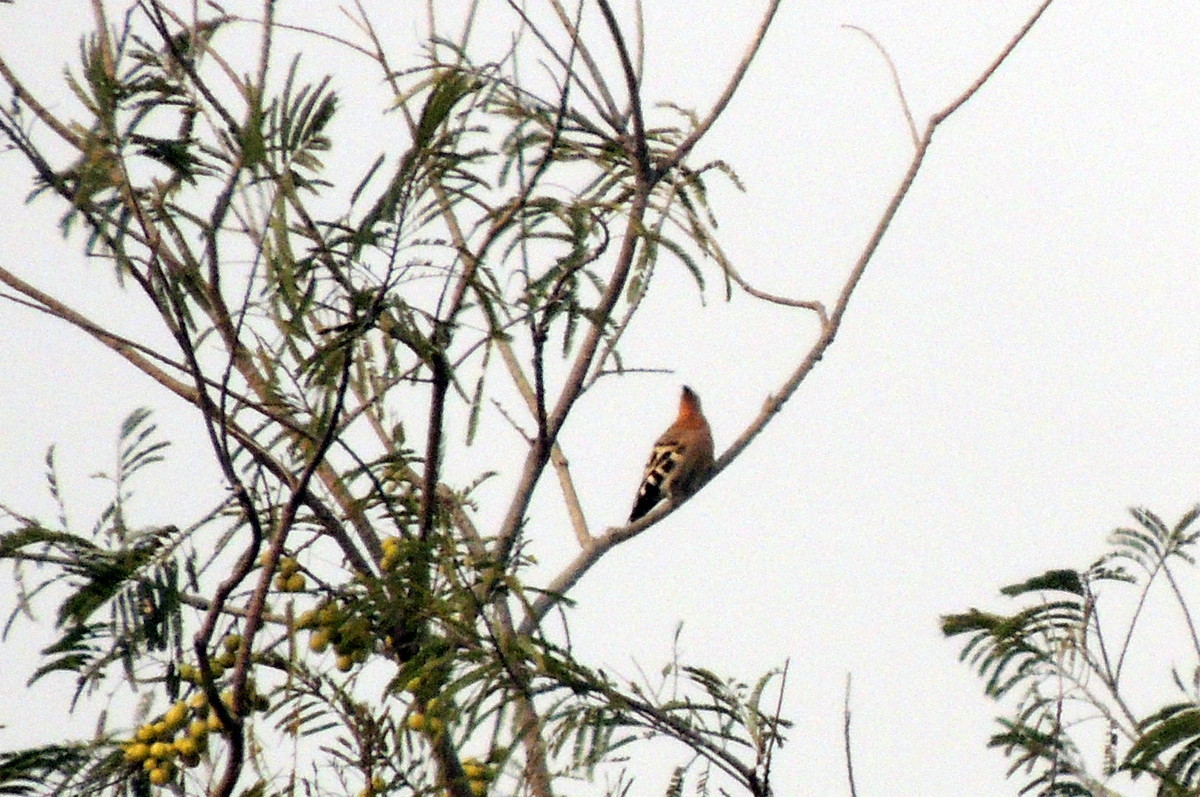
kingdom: Animalia
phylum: Chordata
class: Aves
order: Bucerotiformes
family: Upupidae
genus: Upupa
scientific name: Upupa epops
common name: Eurasian hoopoe
